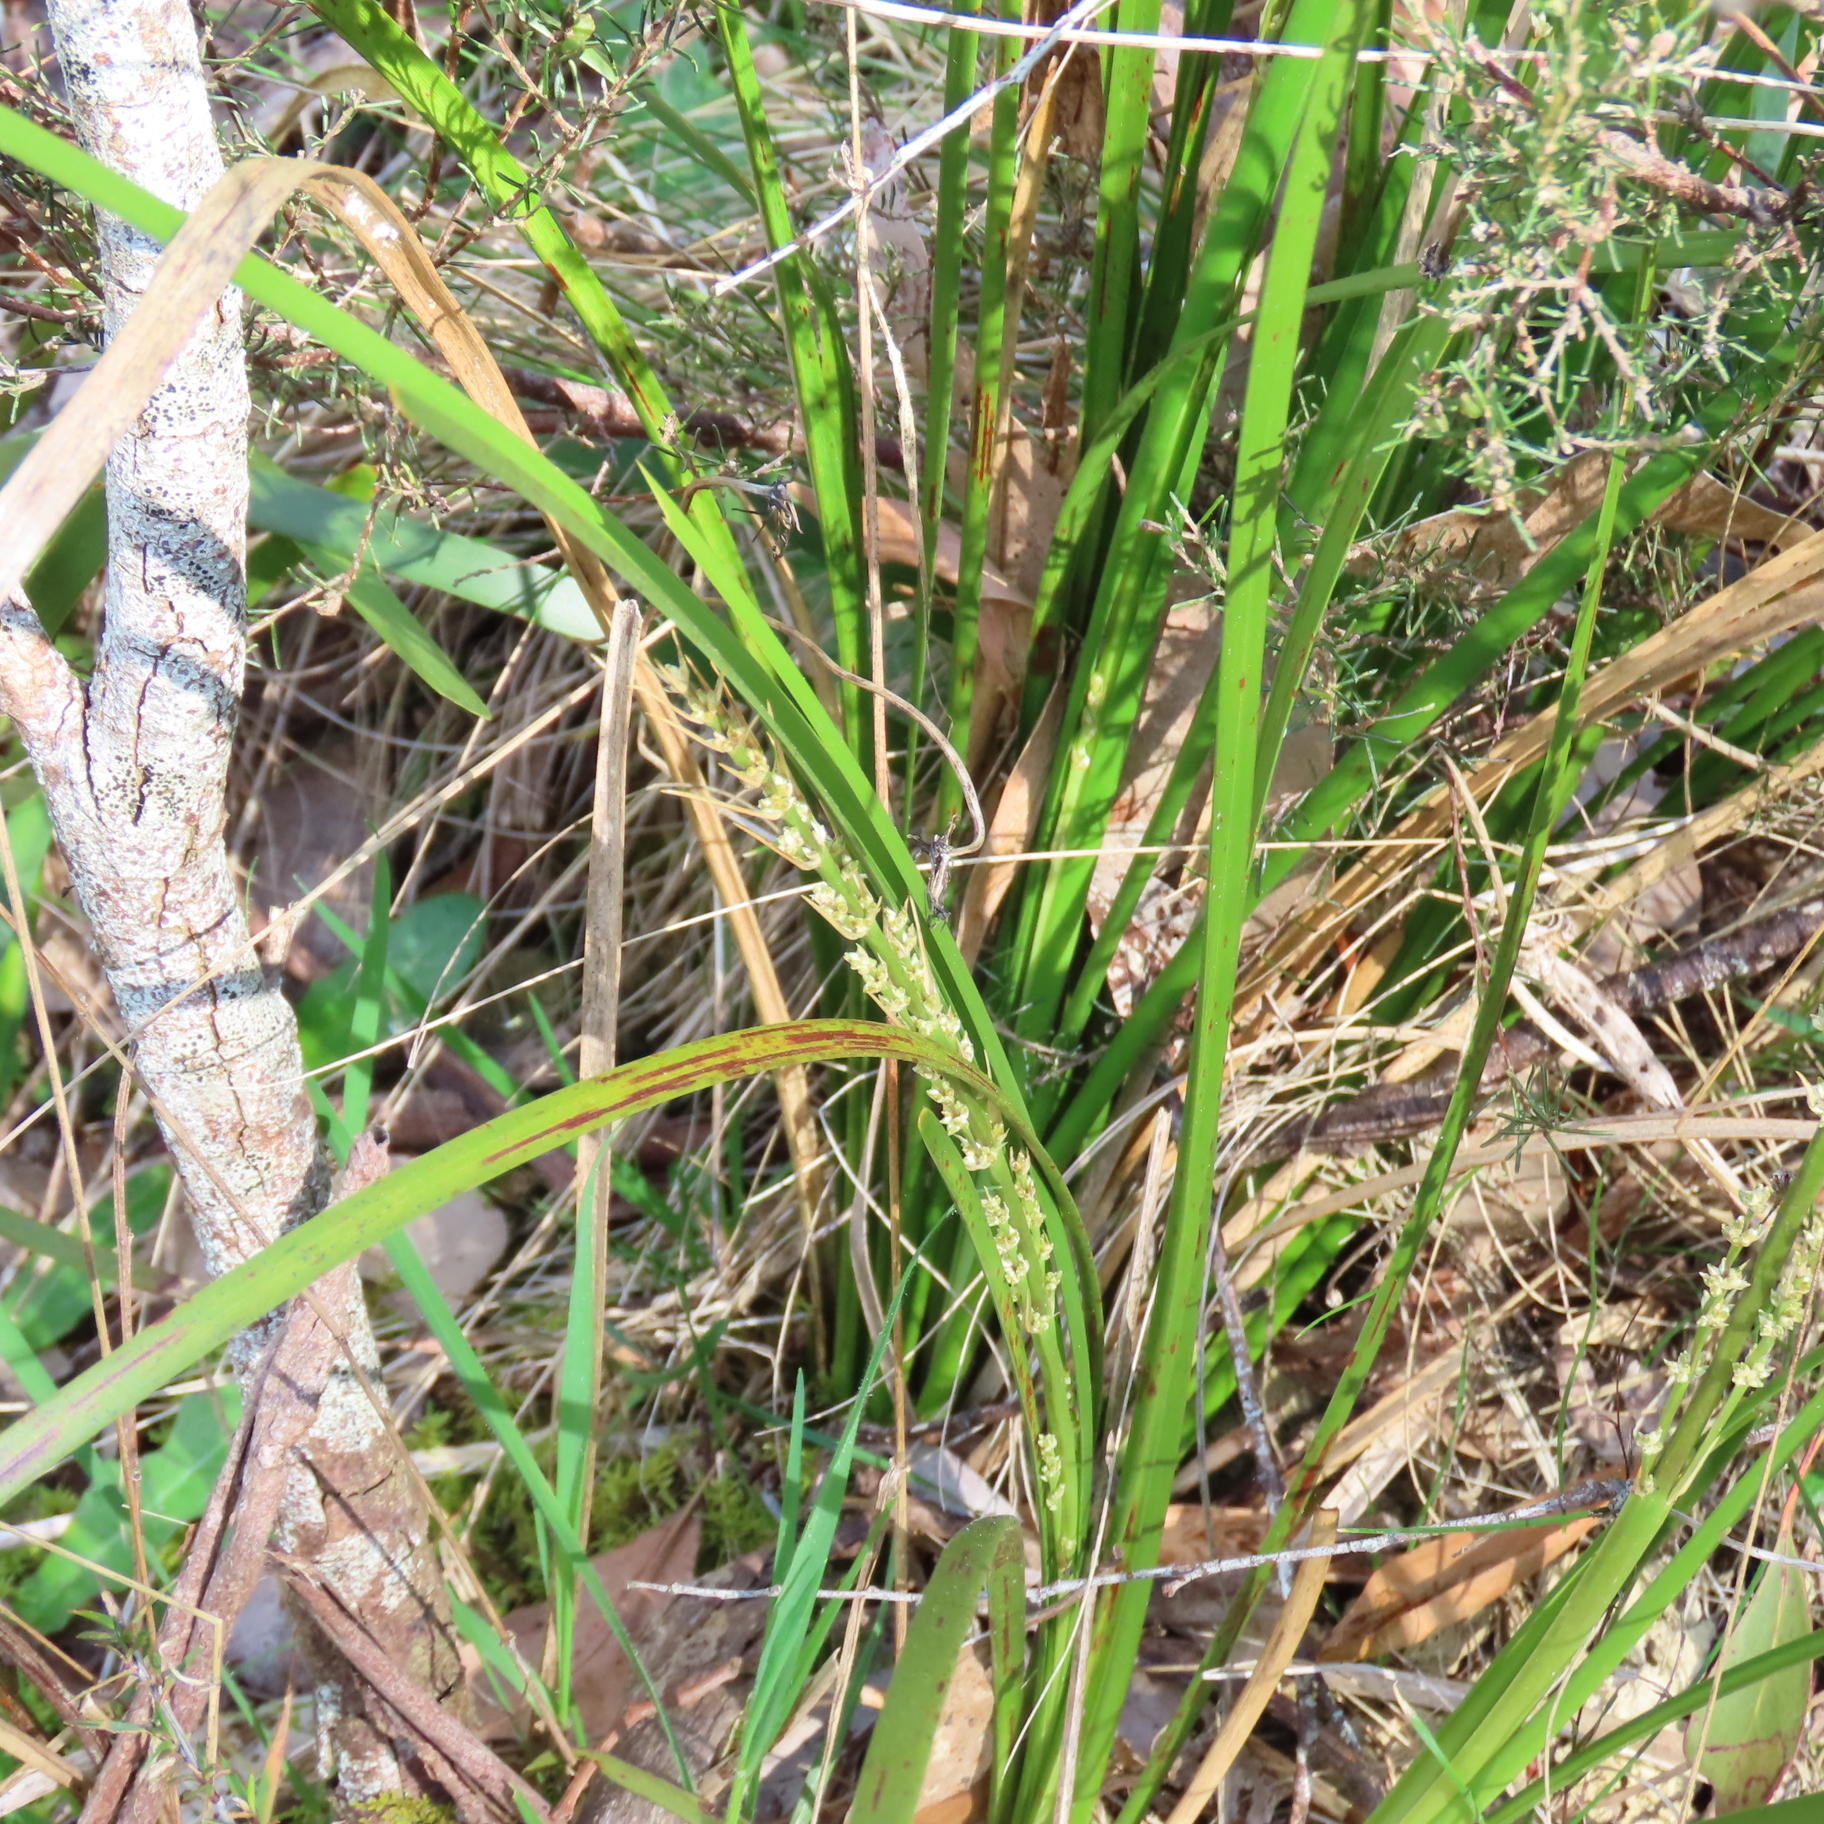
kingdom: Plantae
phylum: Tracheophyta
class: Liliopsida
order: Asparagales
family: Asparagaceae
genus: Lomandra
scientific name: Lomandra longifolia
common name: Longleaf mat-rush
